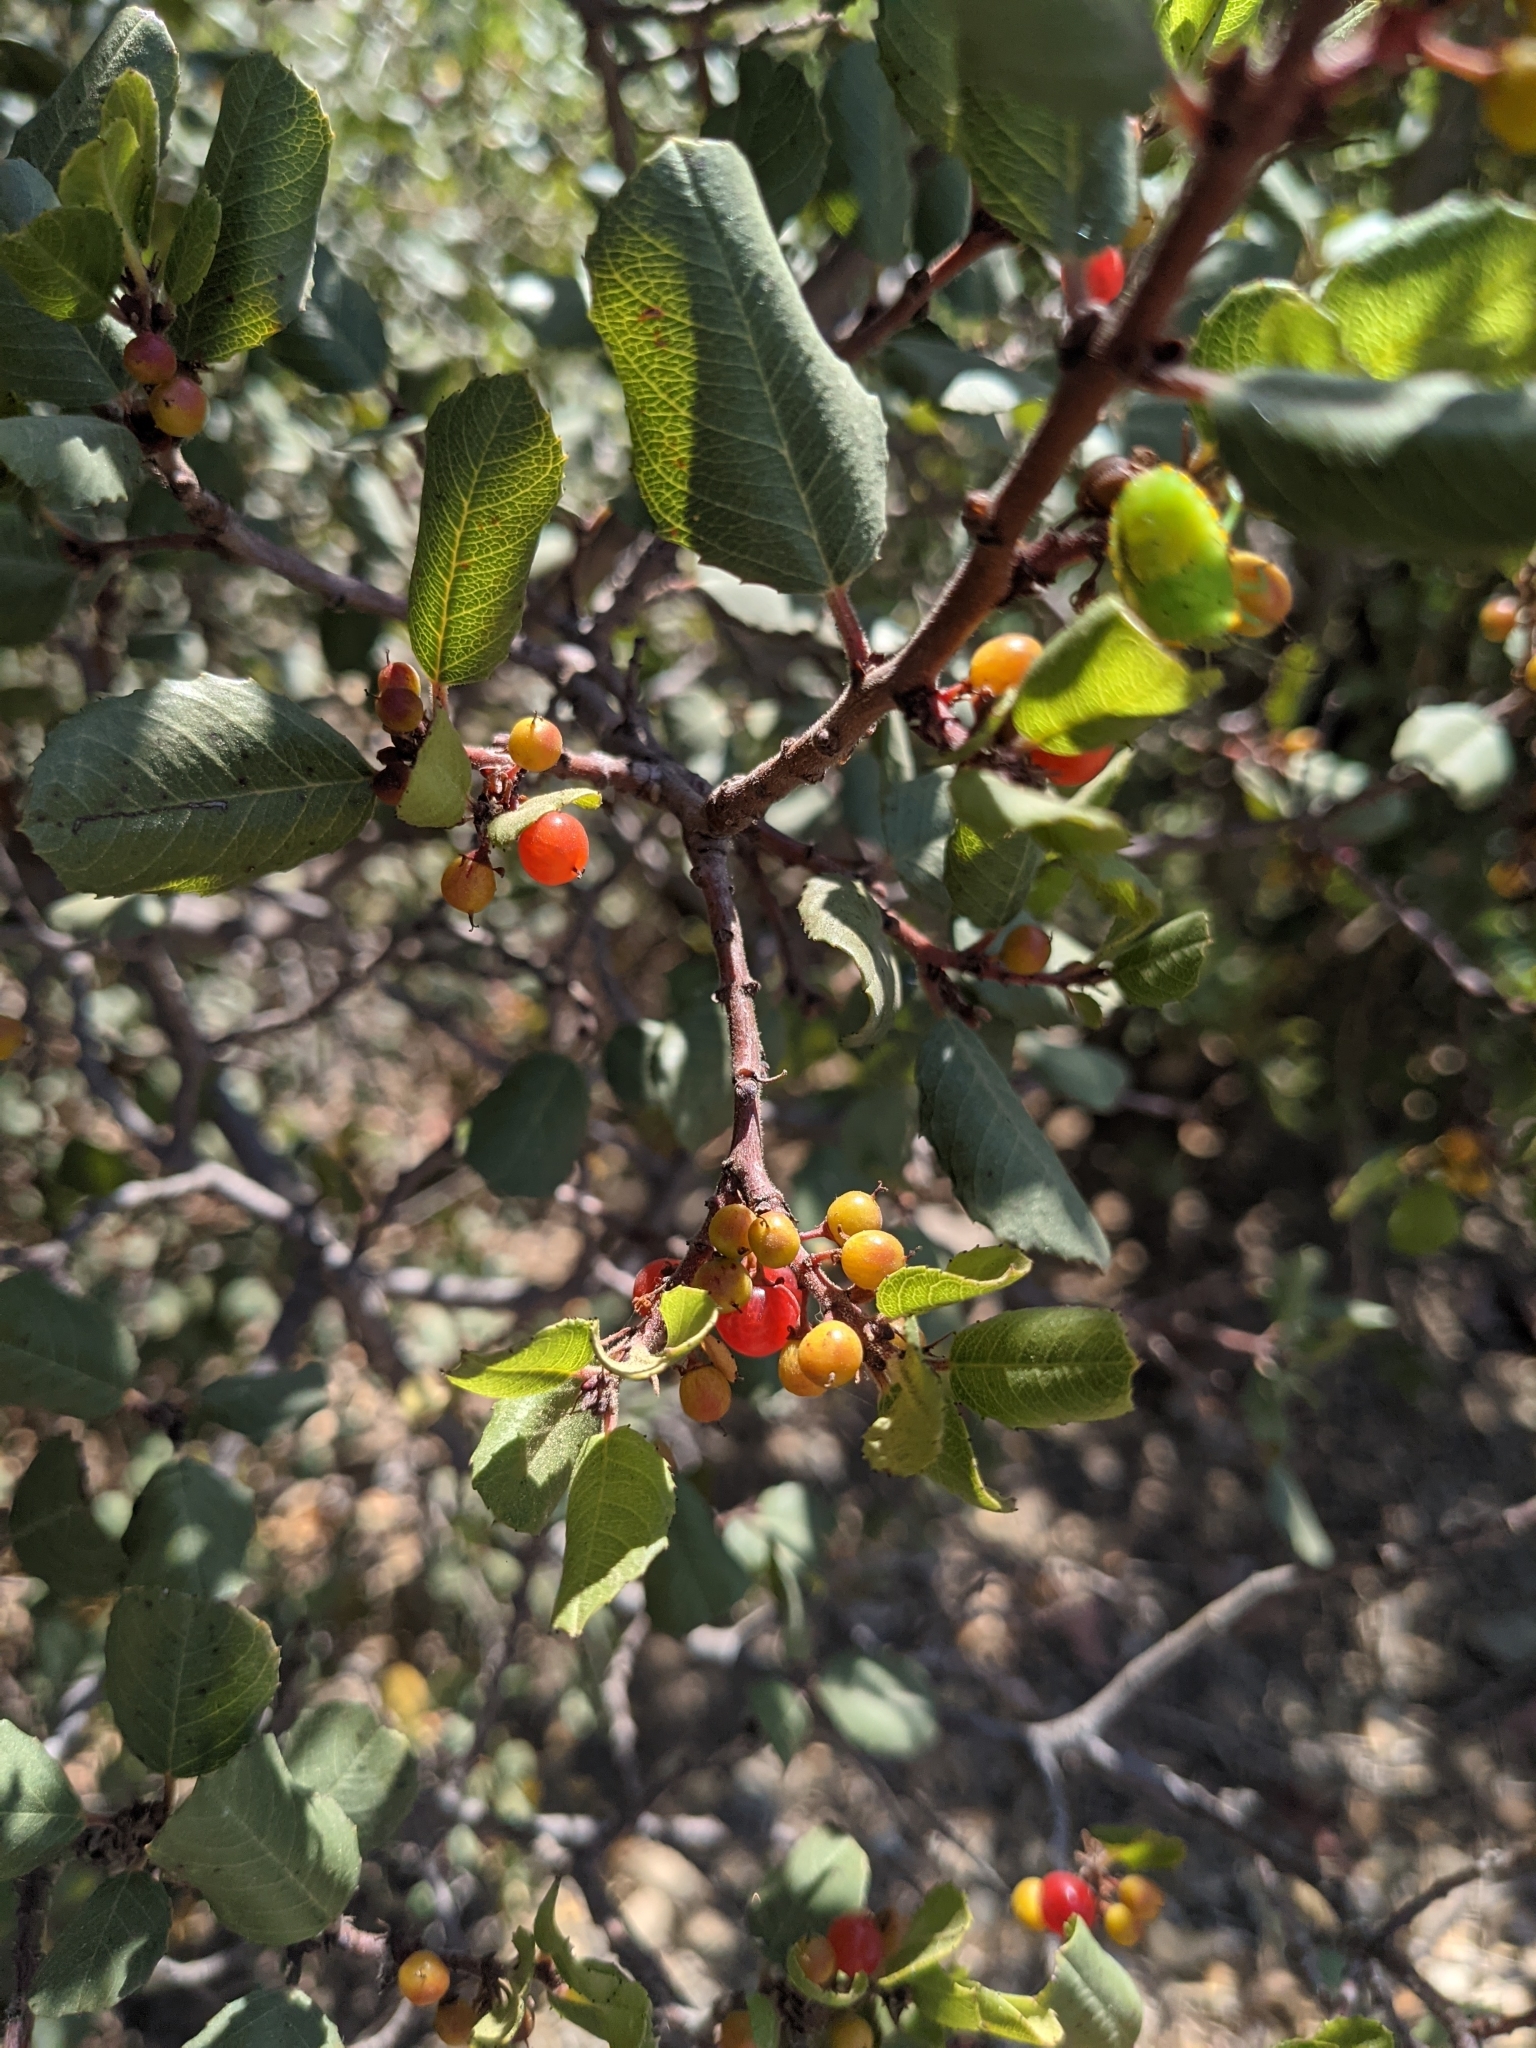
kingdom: Plantae
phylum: Tracheophyta
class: Magnoliopsida
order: Rosales
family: Rhamnaceae
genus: Endotropis
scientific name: Endotropis crocea
